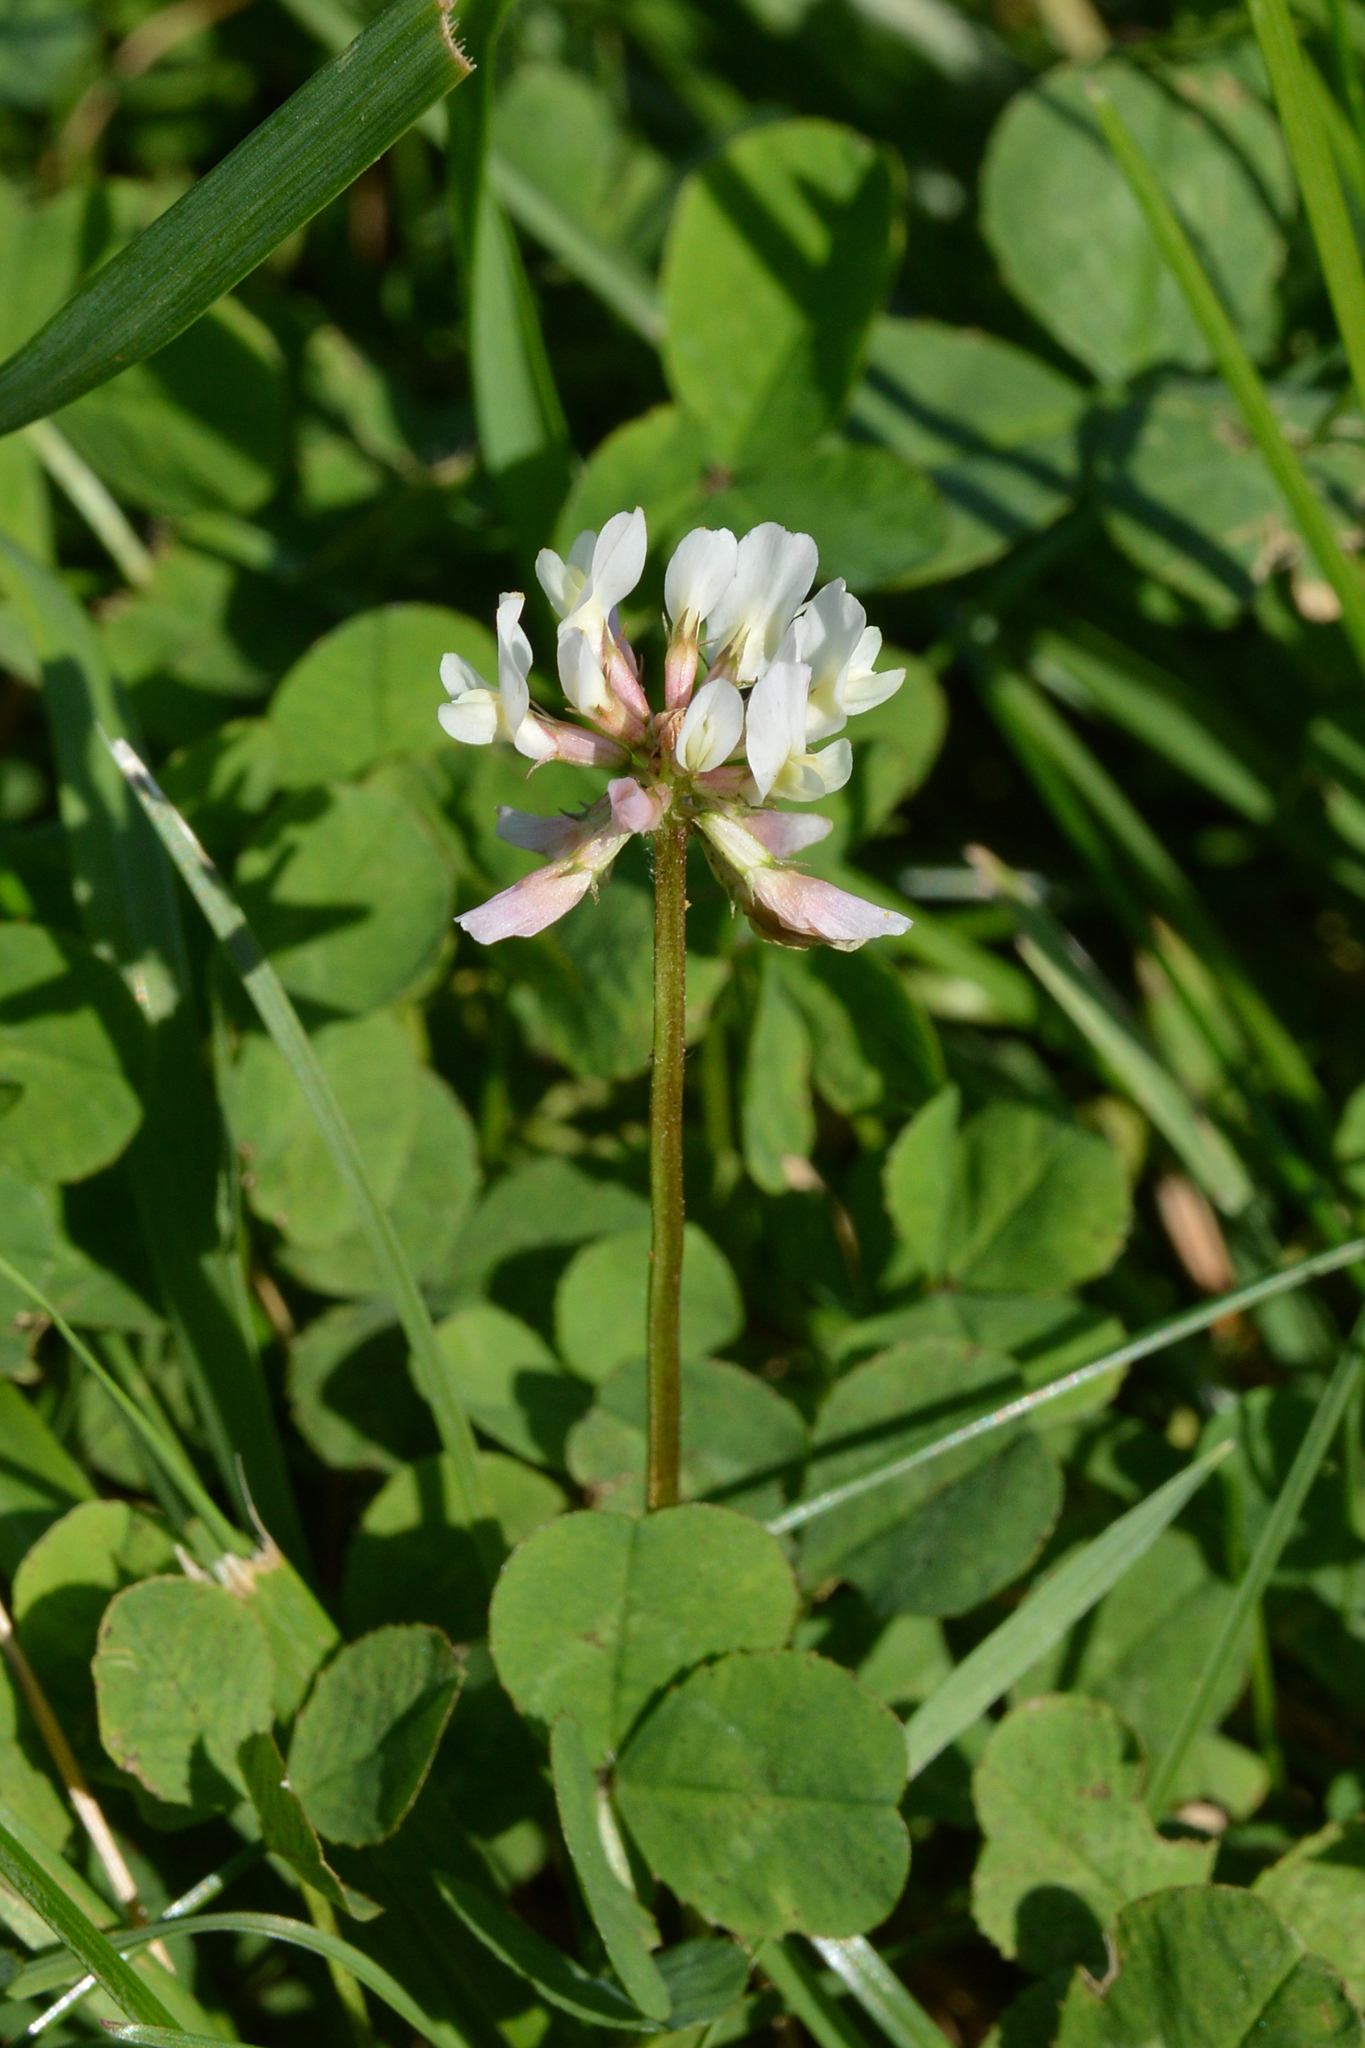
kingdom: Plantae
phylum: Tracheophyta
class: Magnoliopsida
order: Fabales
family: Fabaceae
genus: Trifolium
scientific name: Trifolium repens
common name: White clover
